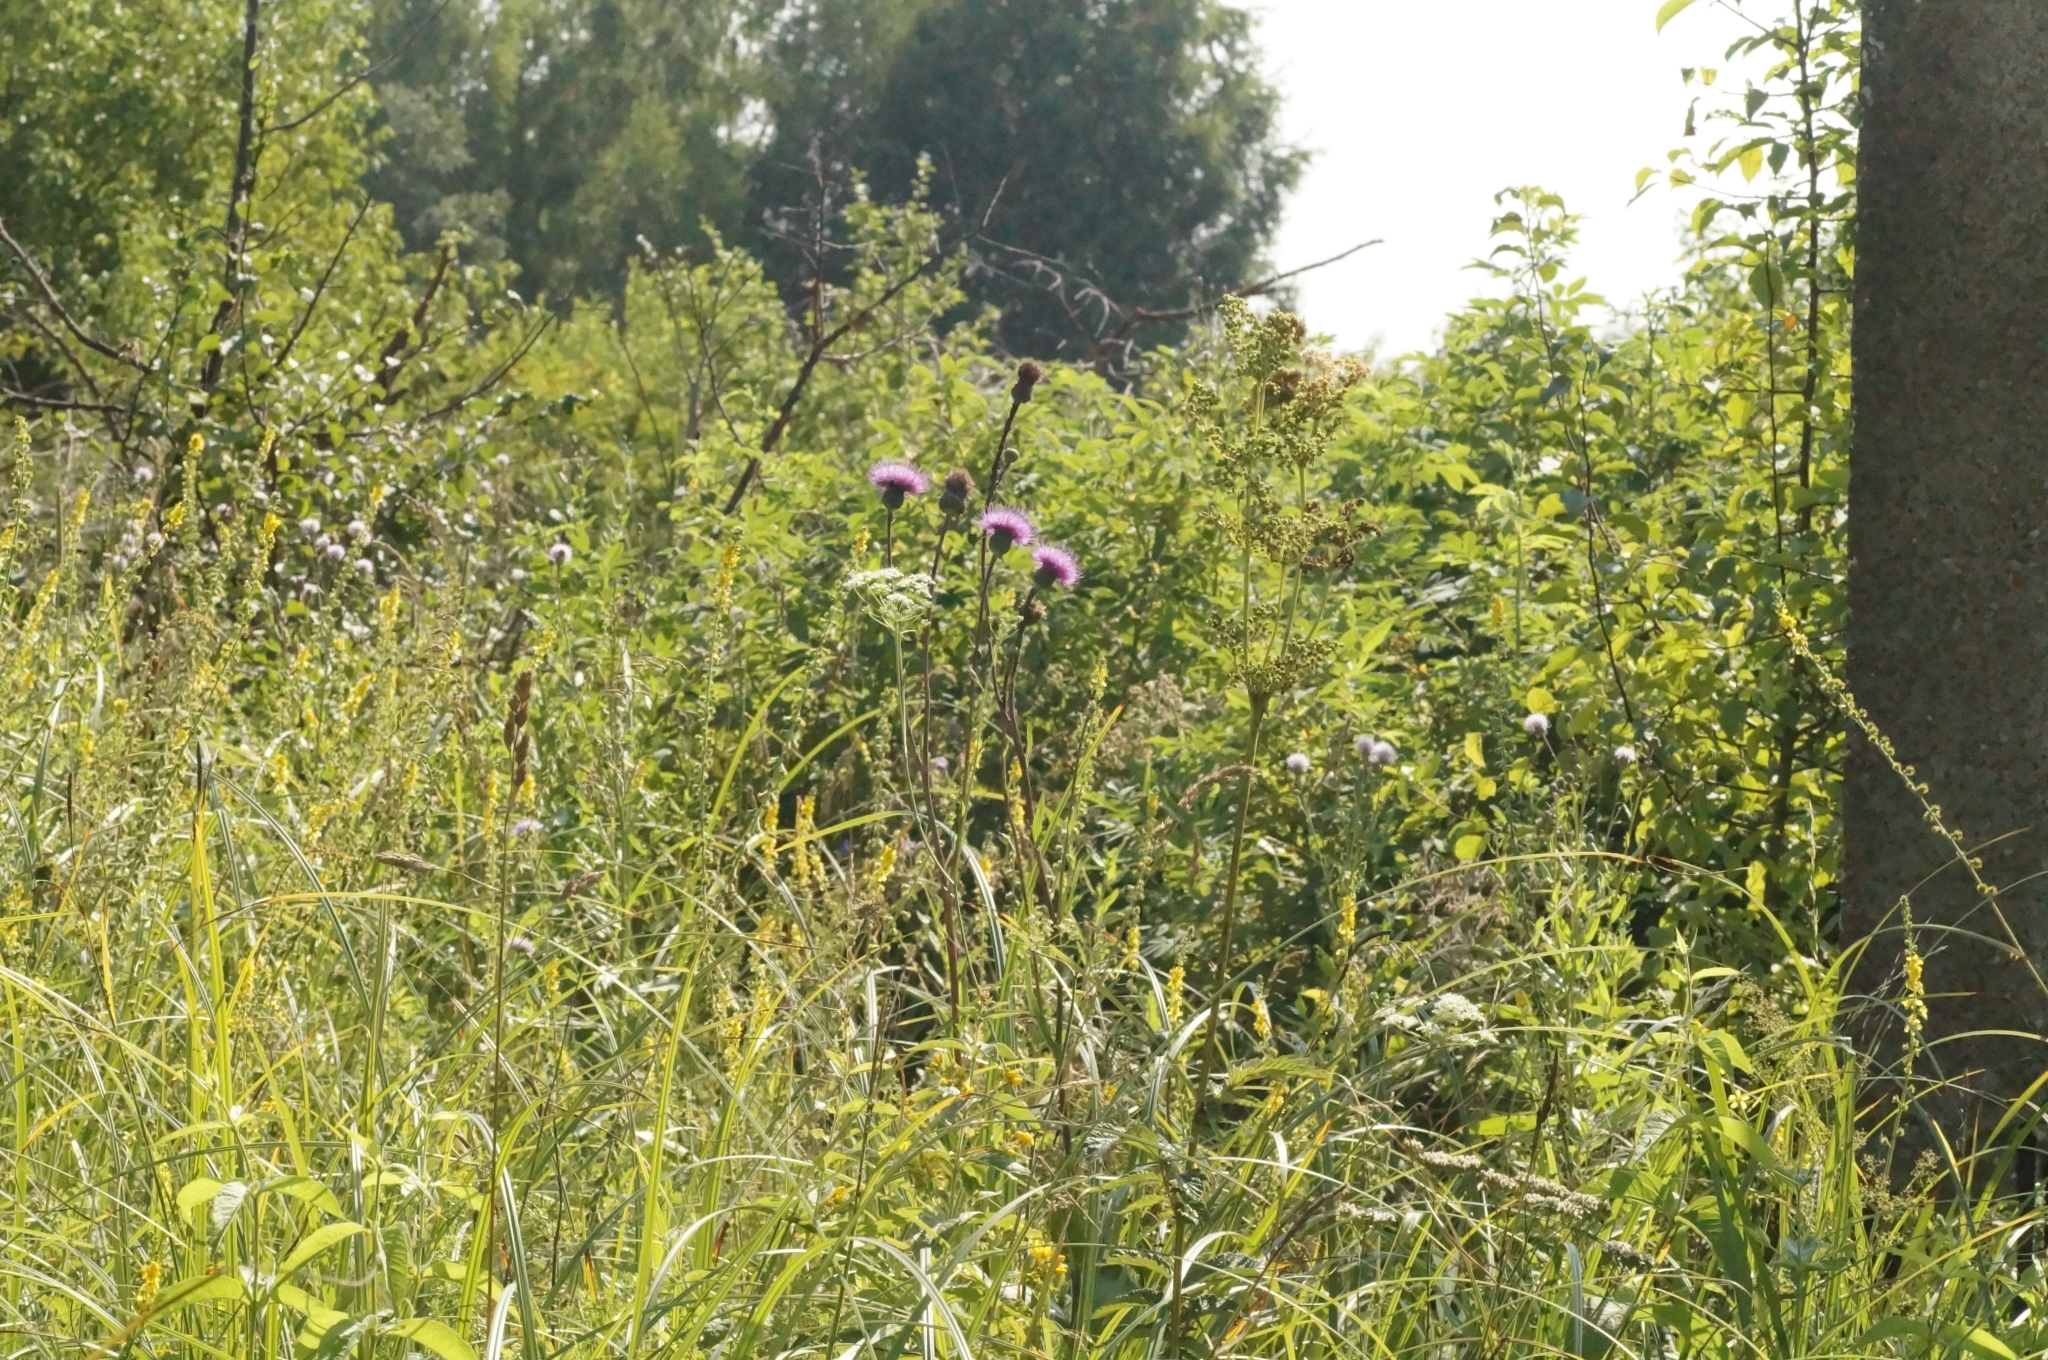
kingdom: Plantae
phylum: Tracheophyta
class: Magnoliopsida
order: Asterales
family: Asteraceae
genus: Cirsium
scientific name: Cirsium canum
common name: Queen anne's thistle
